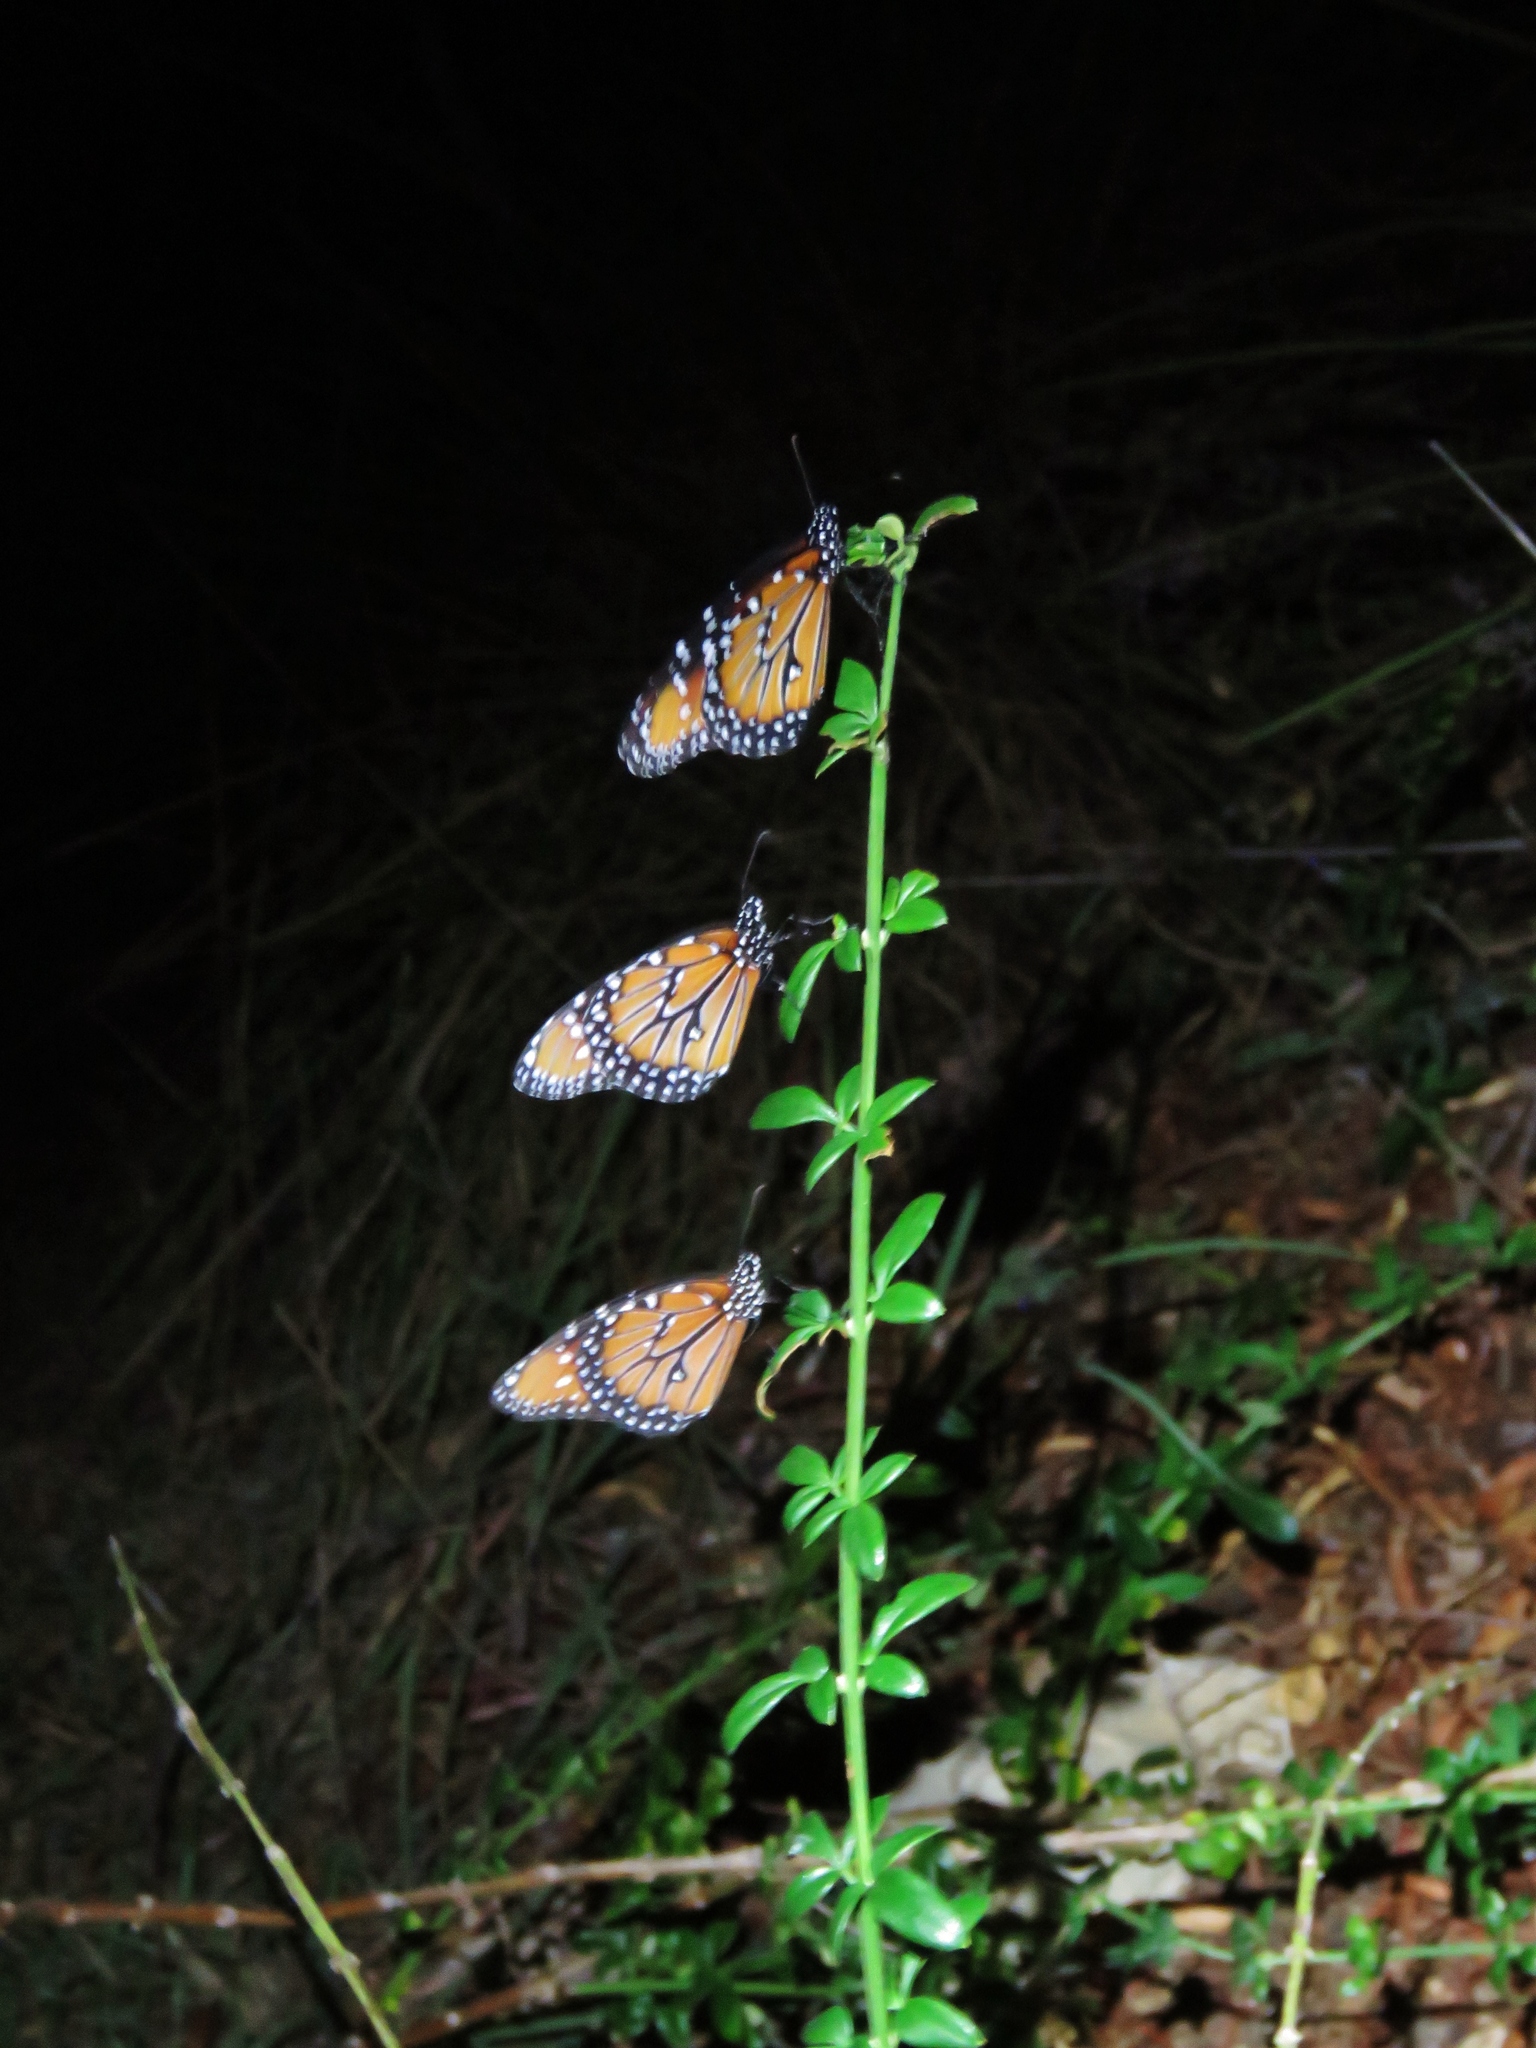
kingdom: Animalia
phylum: Arthropoda
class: Insecta
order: Lepidoptera
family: Nymphalidae
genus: Danaus
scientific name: Danaus gilippus
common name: Queen
